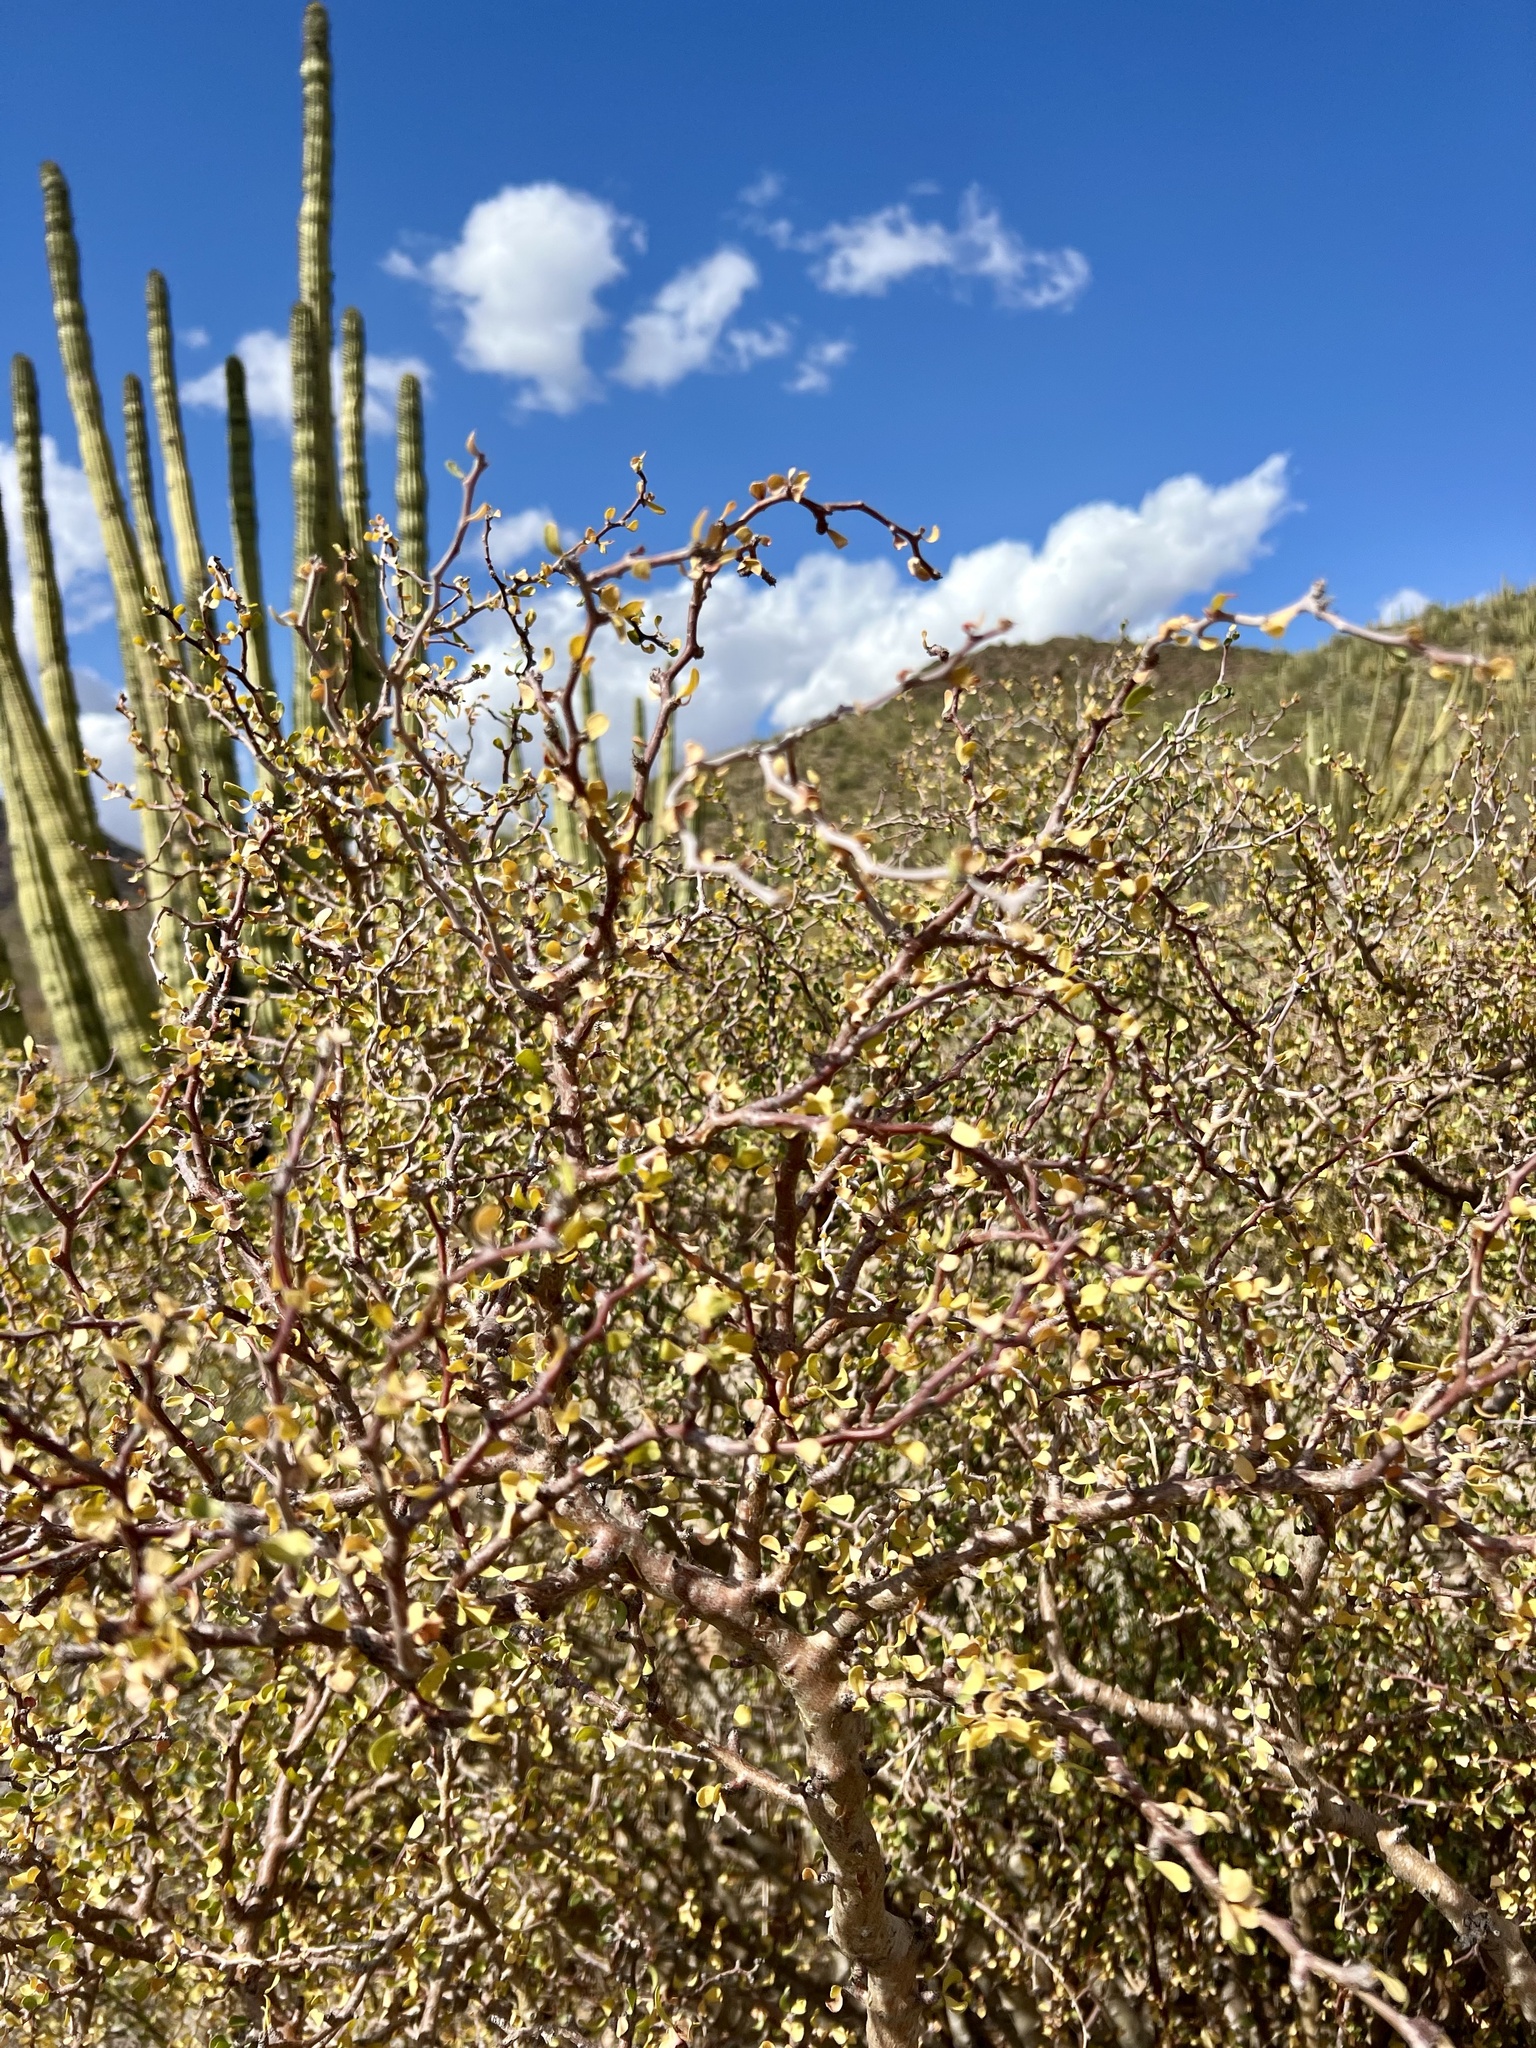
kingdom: Plantae
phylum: Tracheophyta
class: Magnoliopsida
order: Malpighiales
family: Euphorbiaceae
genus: Jatropha
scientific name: Jatropha cuneata
